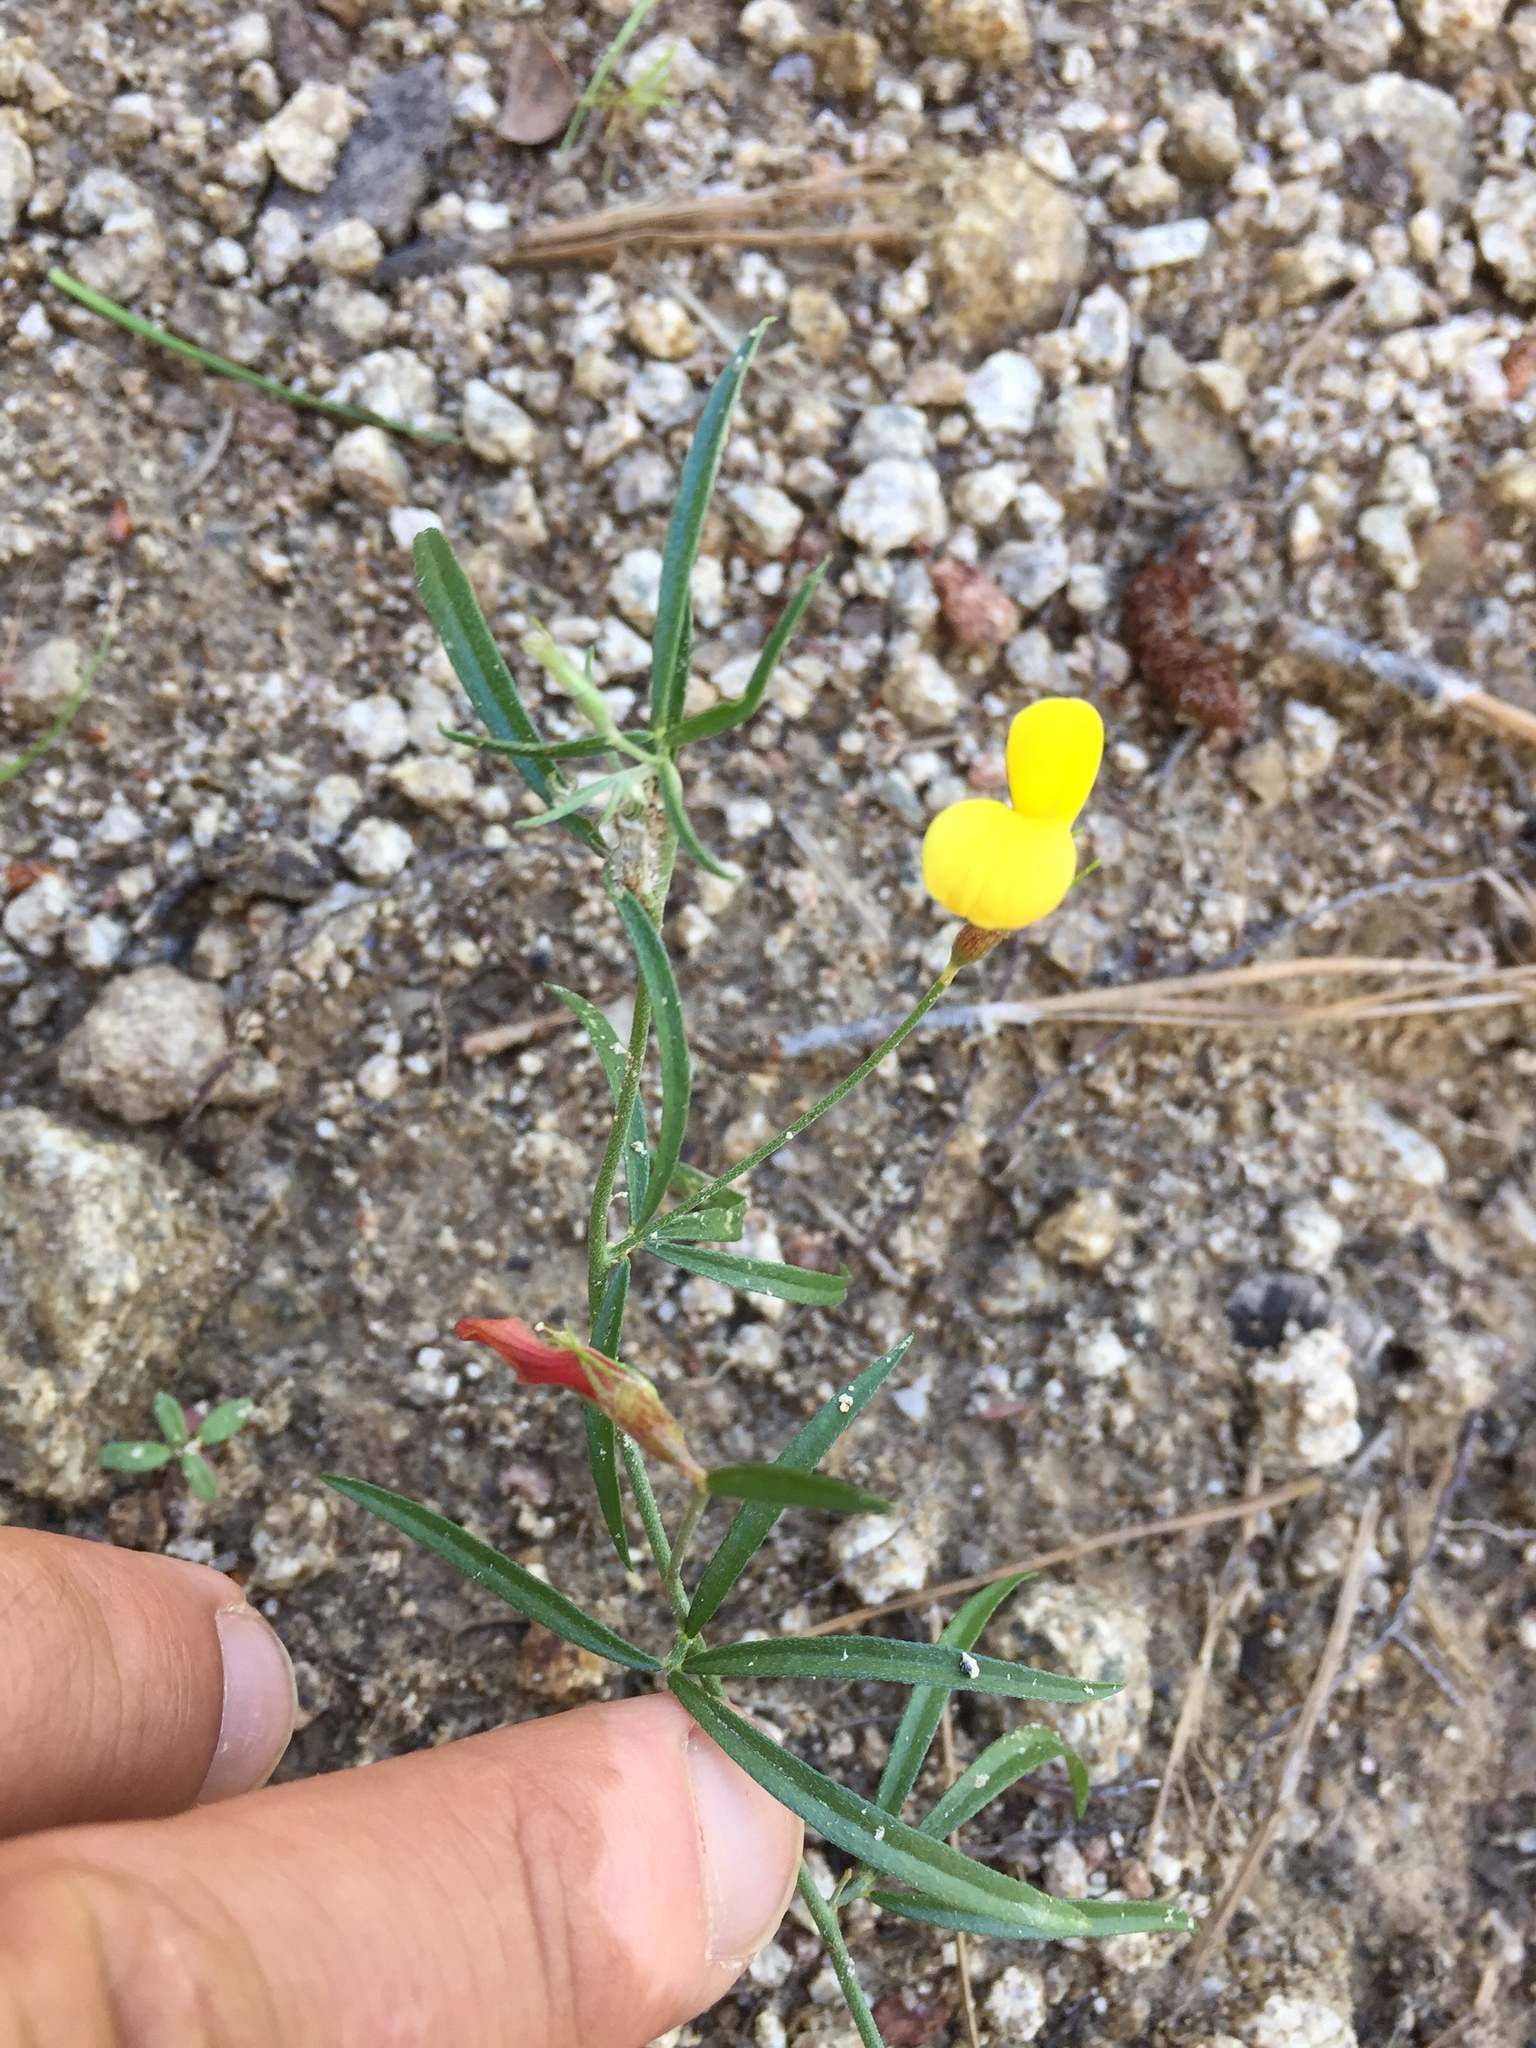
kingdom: Plantae
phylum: Tracheophyta
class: Magnoliopsida
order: Fabales
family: Fabaceae
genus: Crotalaria
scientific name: Crotalaria pumila
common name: Low rattlebox
